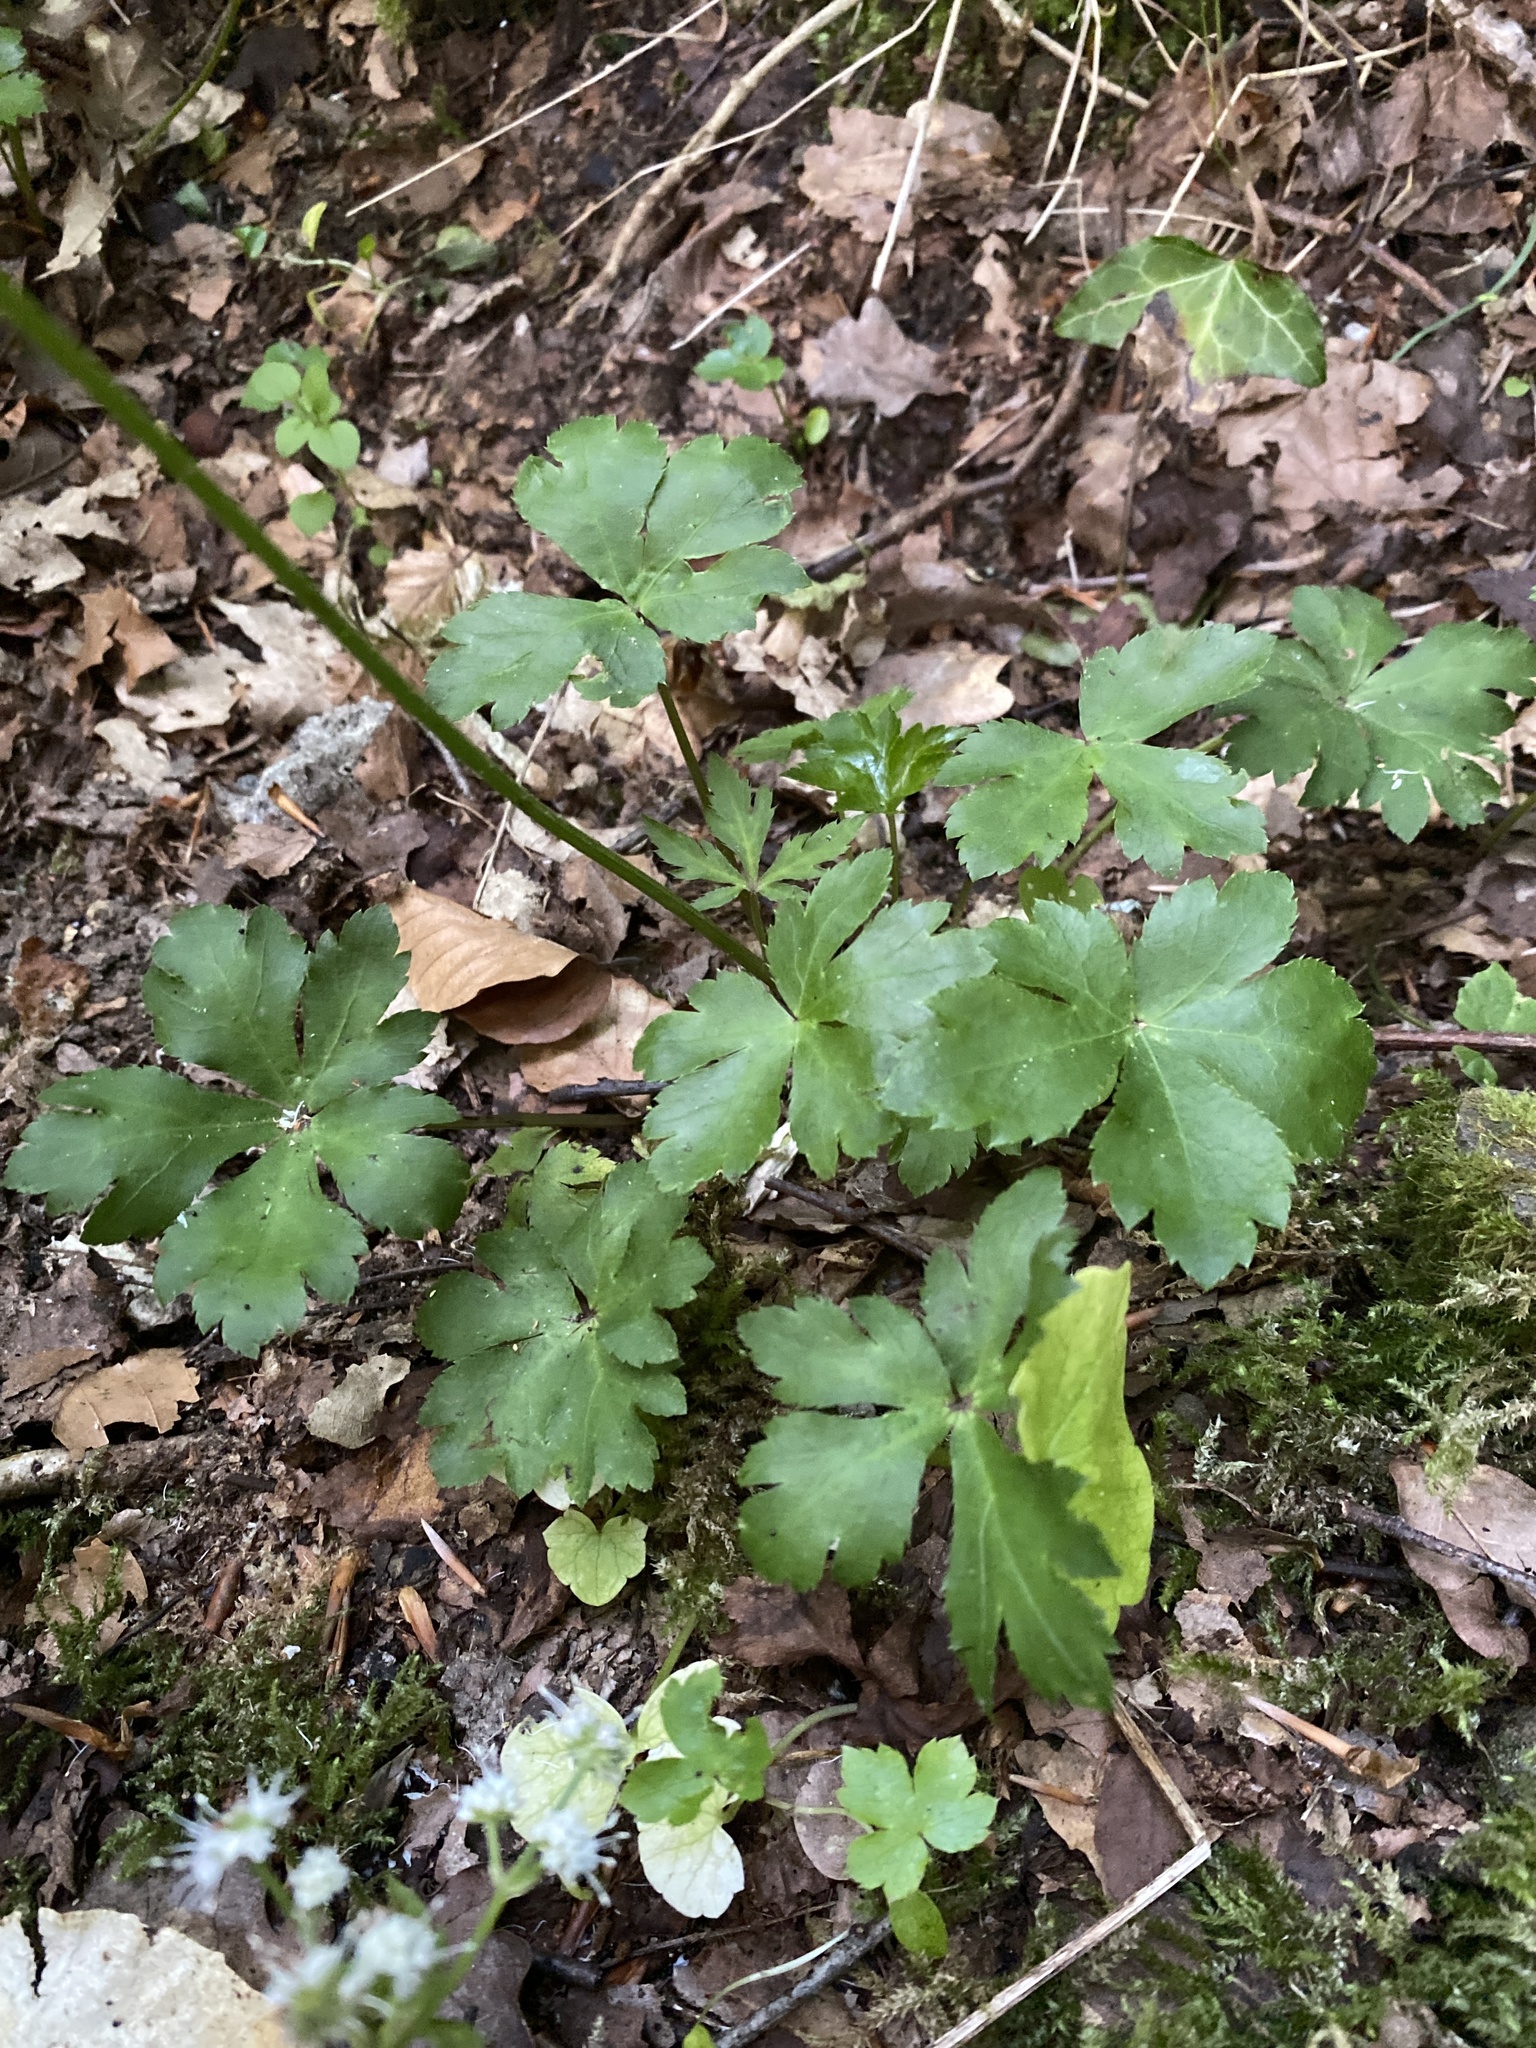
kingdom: Plantae
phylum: Tracheophyta
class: Magnoliopsida
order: Apiales
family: Apiaceae
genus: Sanicula
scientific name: Sanicula europaea
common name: Sanicle
